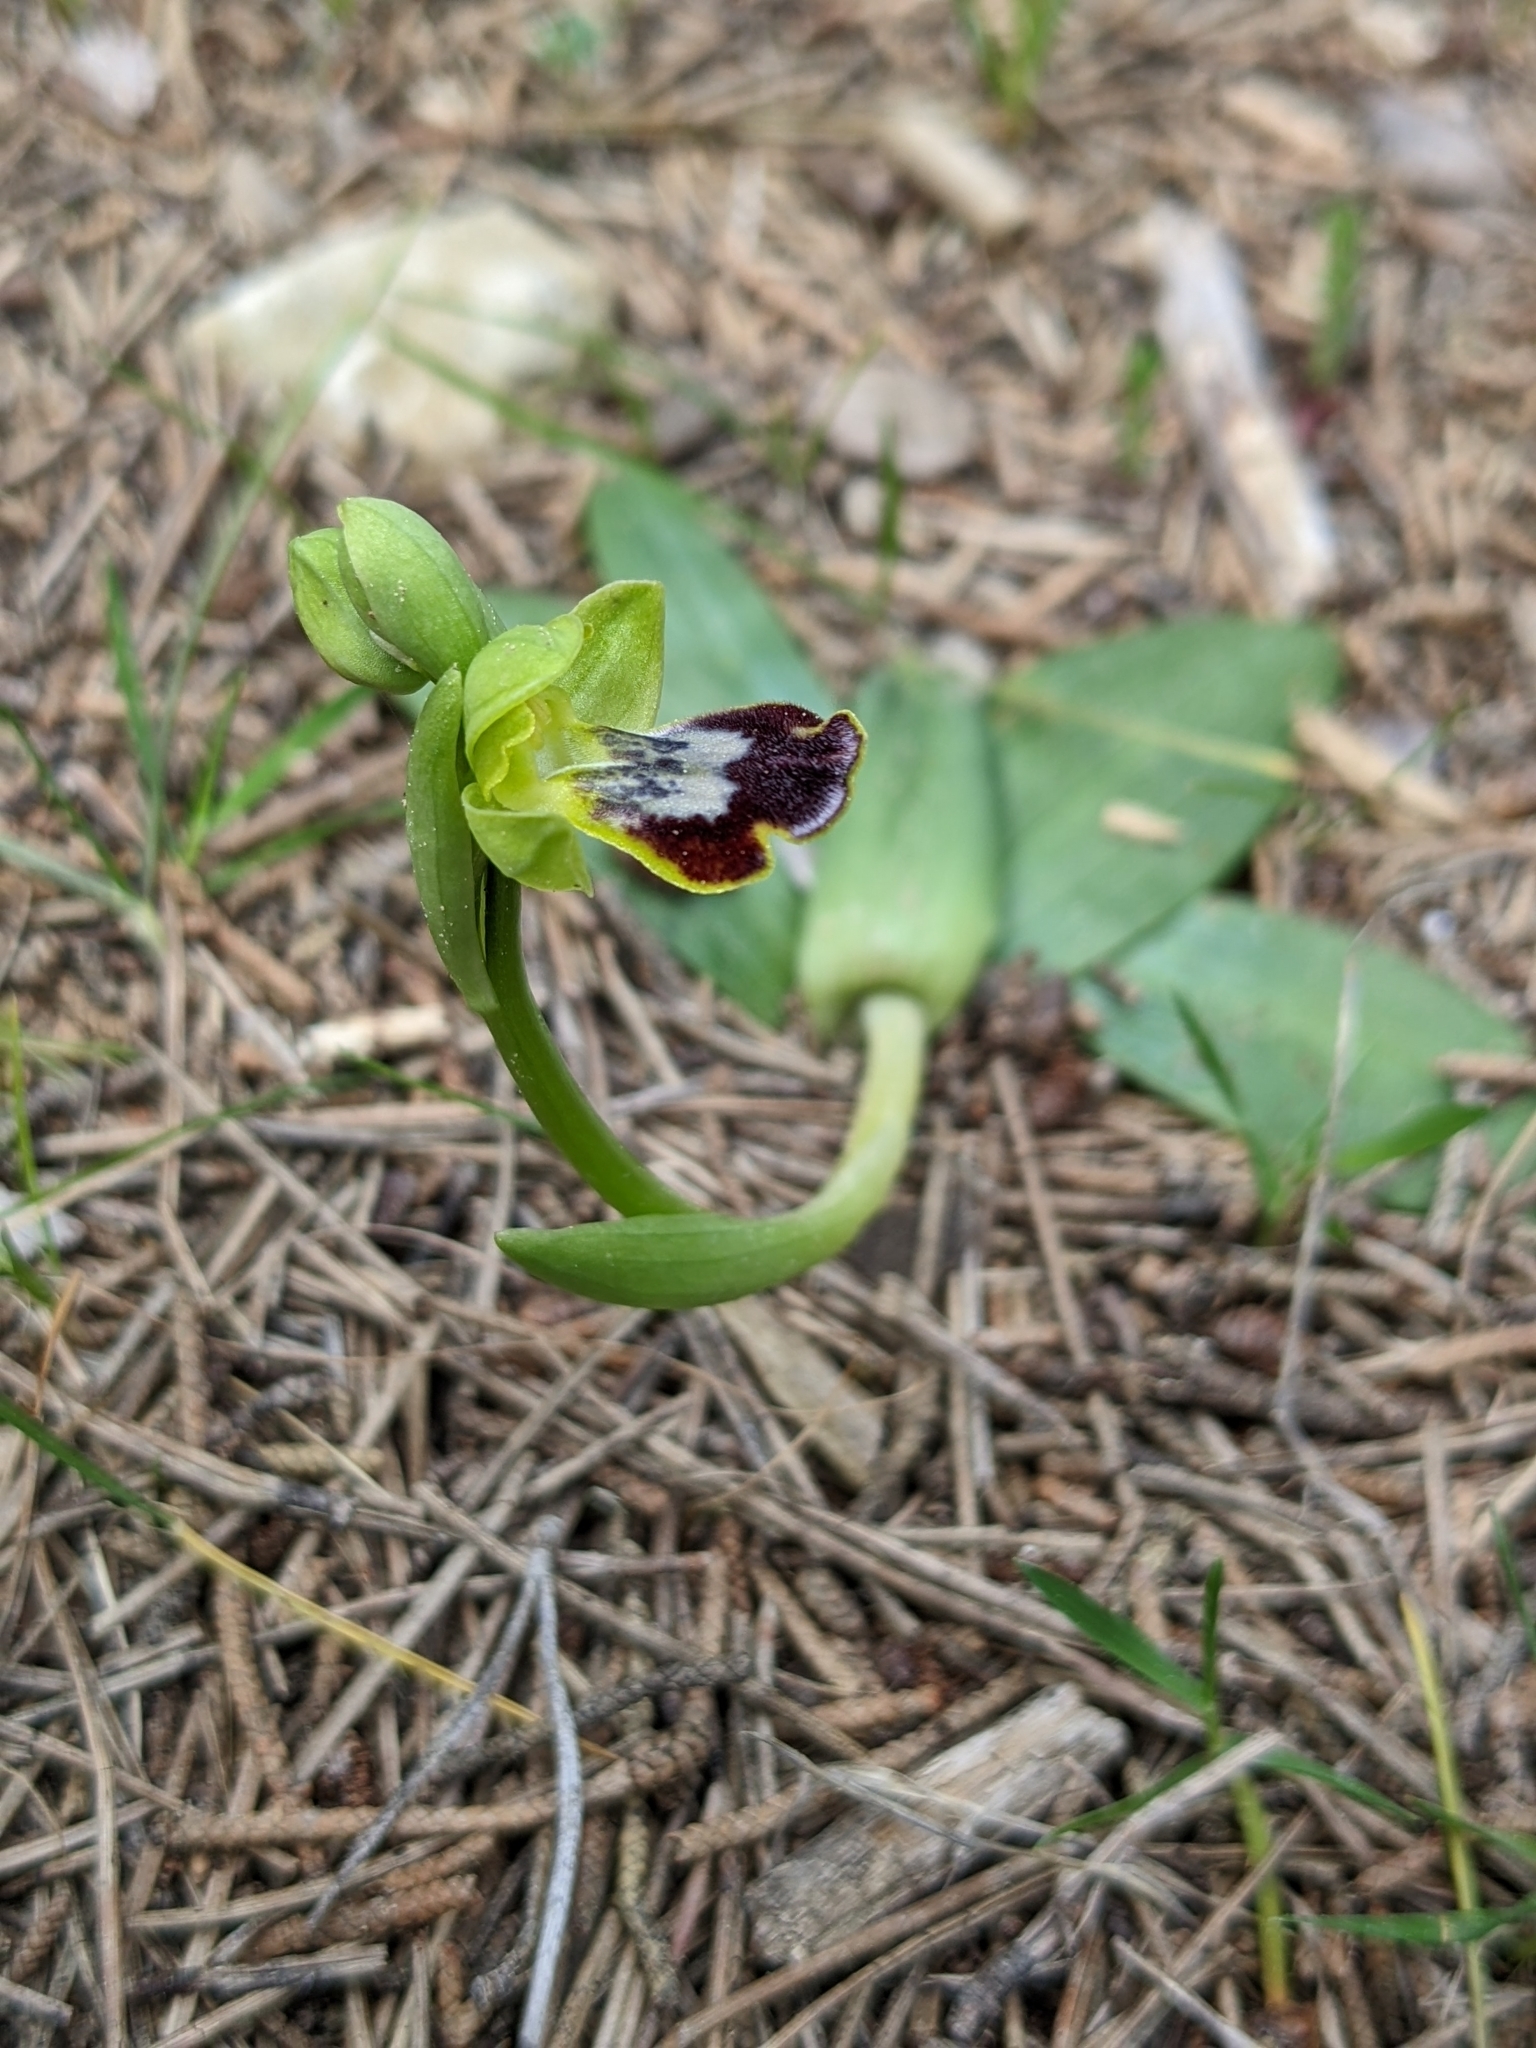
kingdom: Plantae
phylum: Tracheophyta
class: Liliopsida
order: Asparagales
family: Orchidaceae
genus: Ophrys
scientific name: Ophrys fusca
